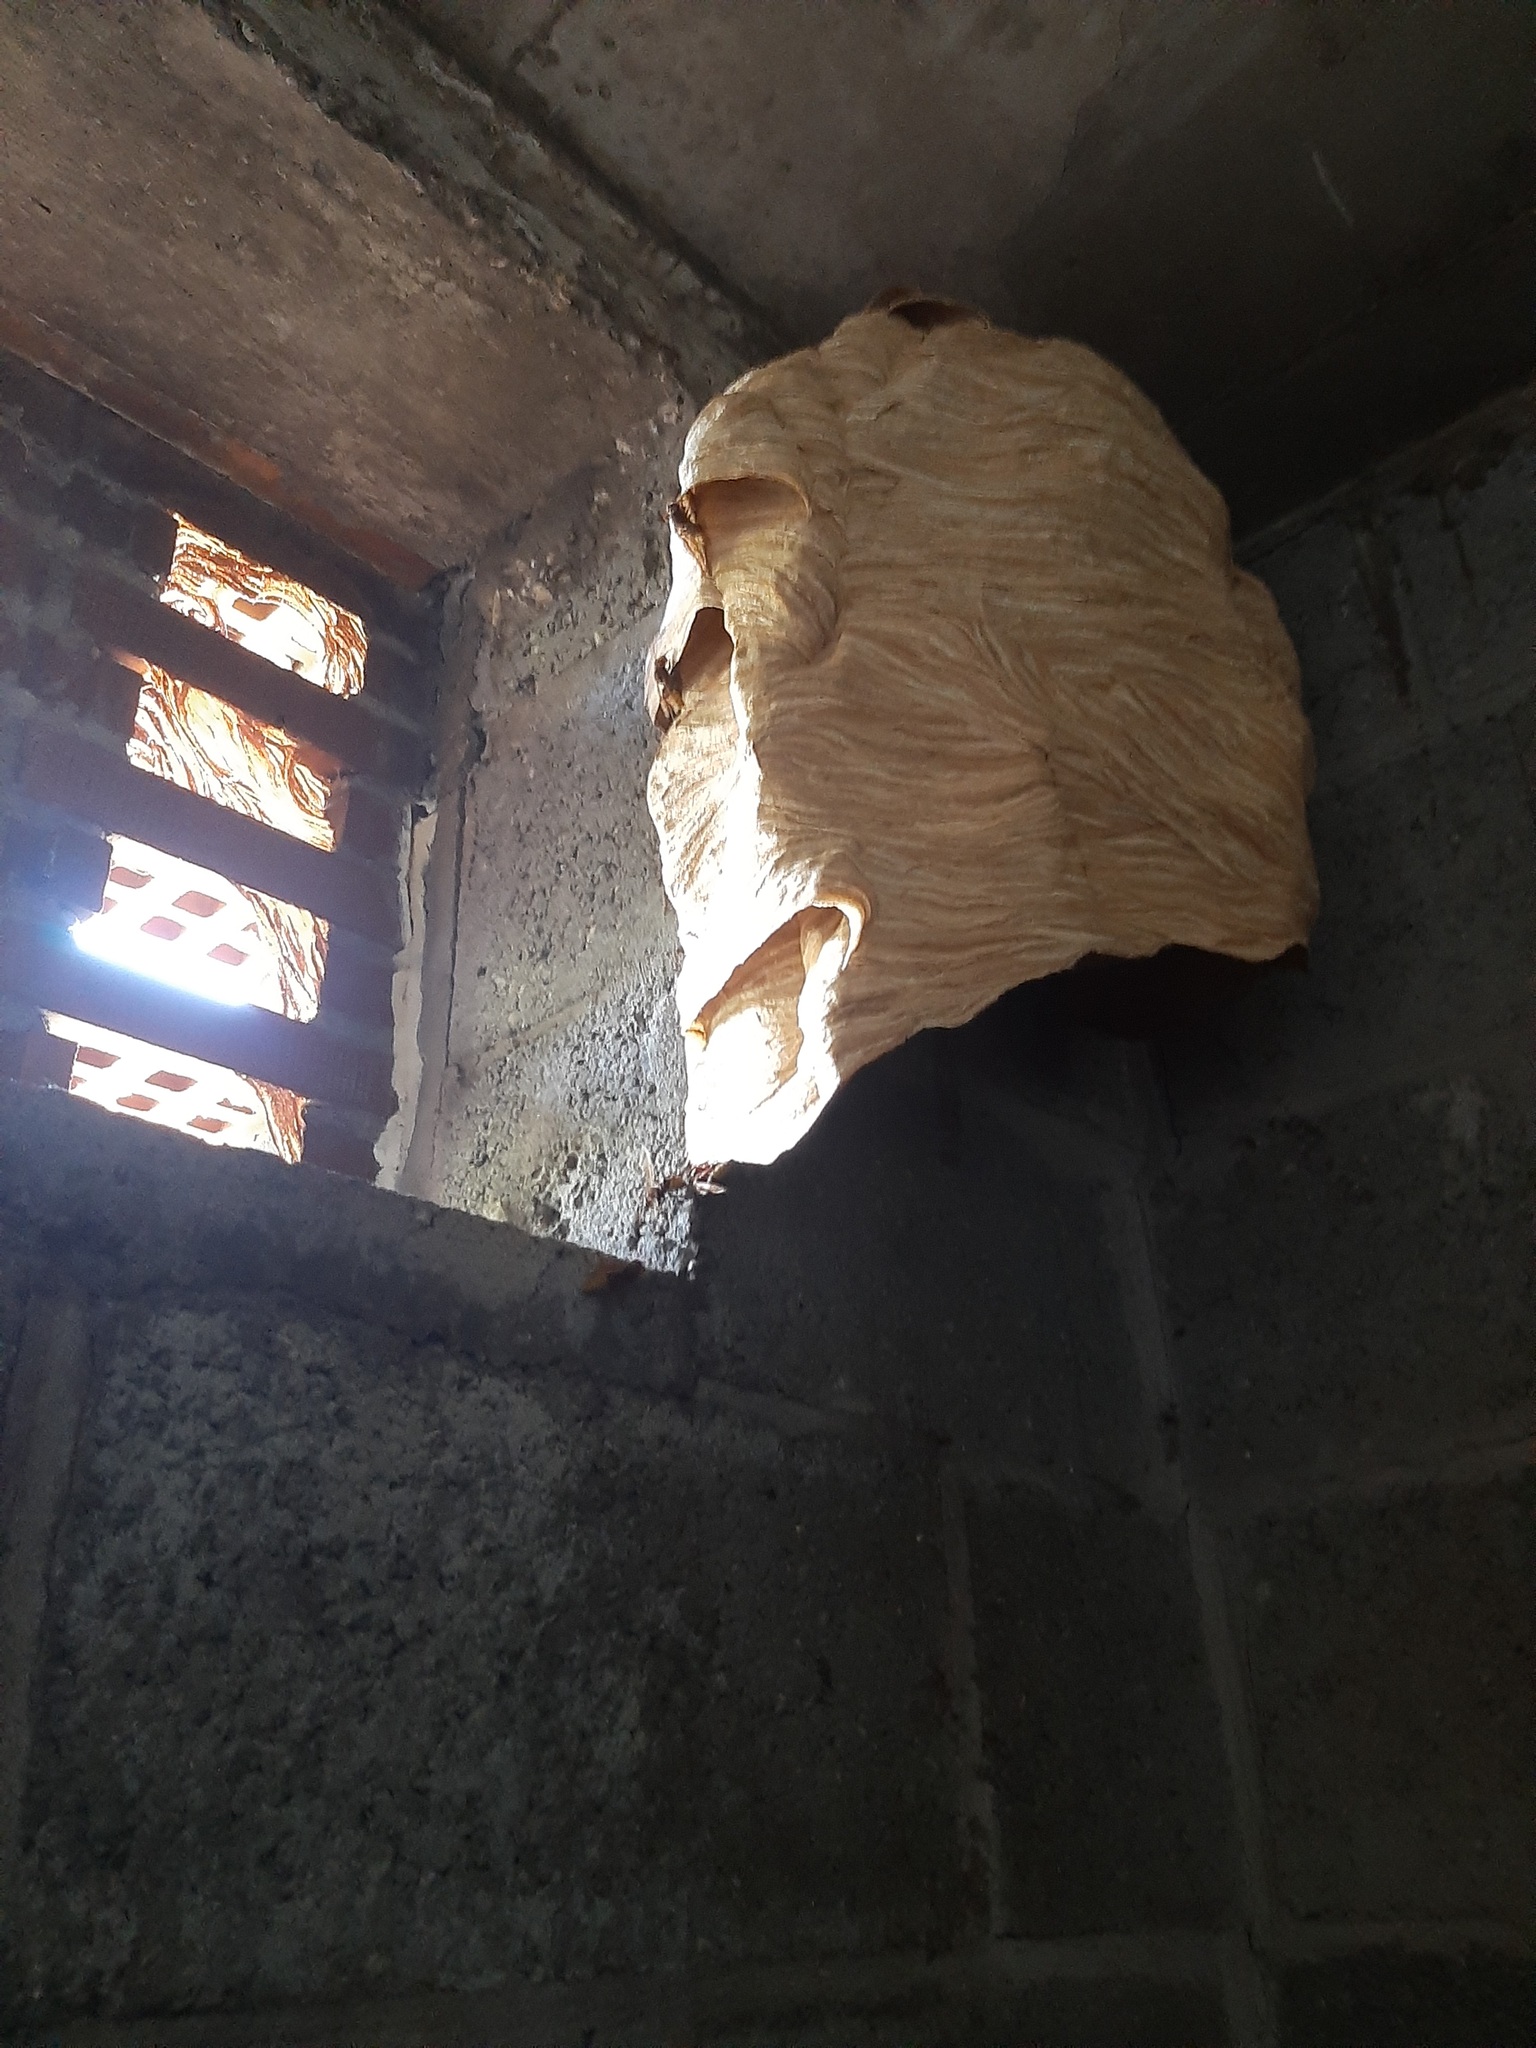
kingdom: Animalia
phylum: Arthropoda
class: Insecta
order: Hymenoptera
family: Vespidae
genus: Vespa
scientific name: Vespa crabro
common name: Hornet
